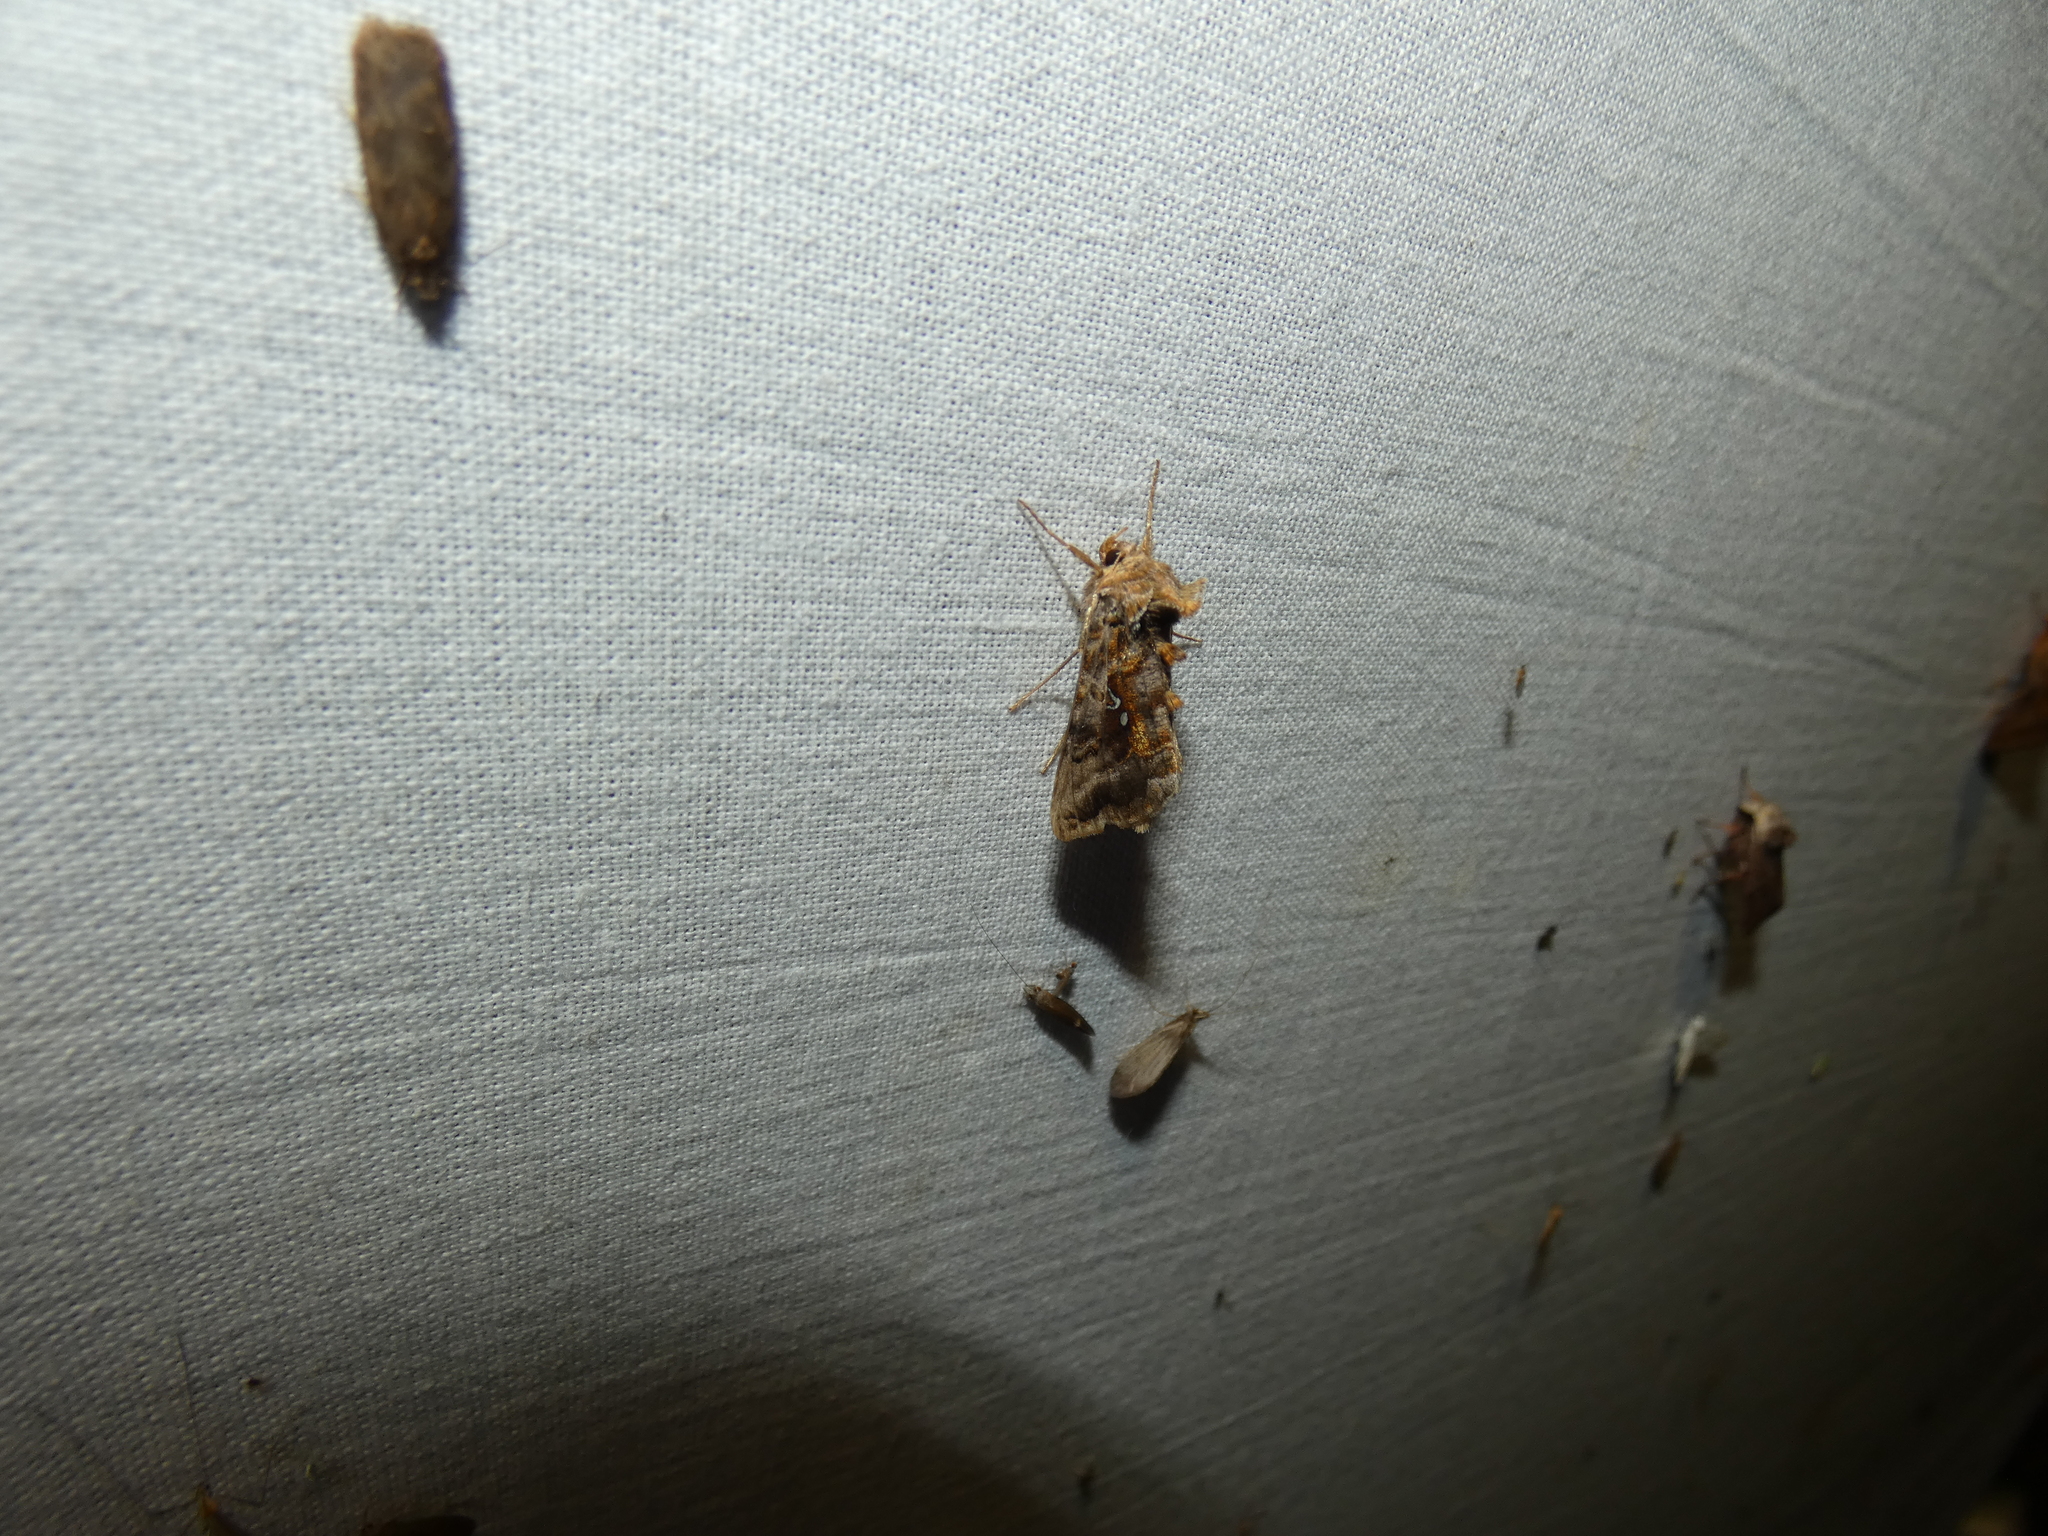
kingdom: Animalia
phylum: Arthropoda
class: Insecta
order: Lepidoptera
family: Noctuidae
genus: Autographa
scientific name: Autographa pulchrina
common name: Beautiful golden y
